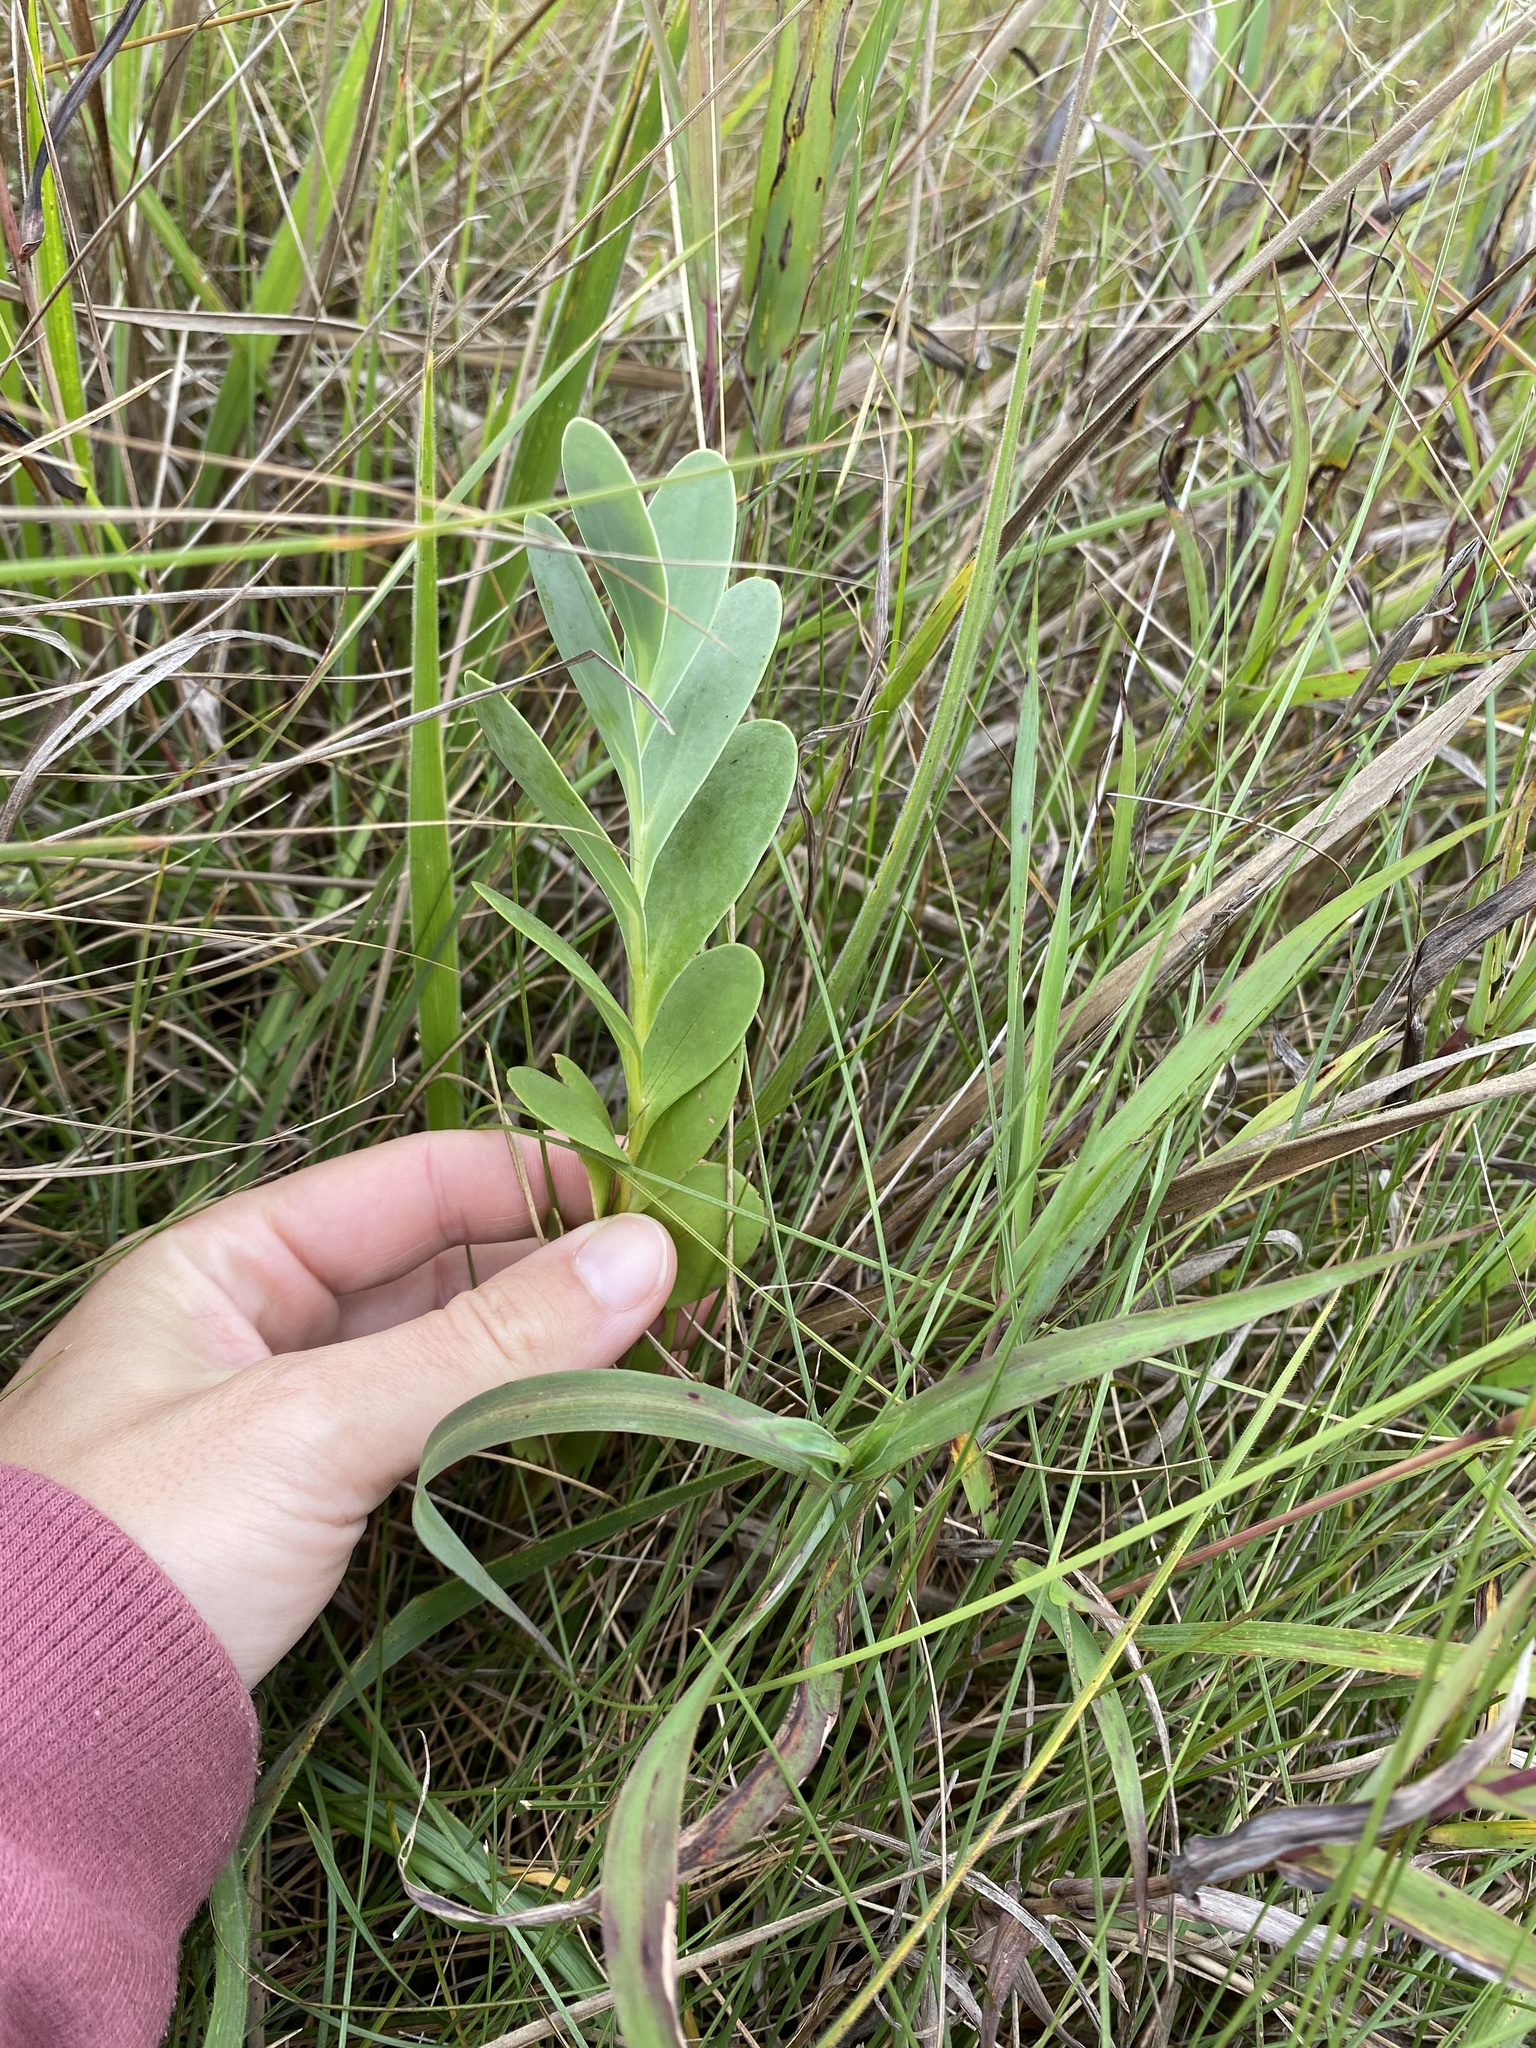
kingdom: Plantae
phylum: Tracheophyta
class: Magnoliopsida
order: Asterales
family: Asteraceae
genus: Lopholaena
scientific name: Lopholaena segmentata
